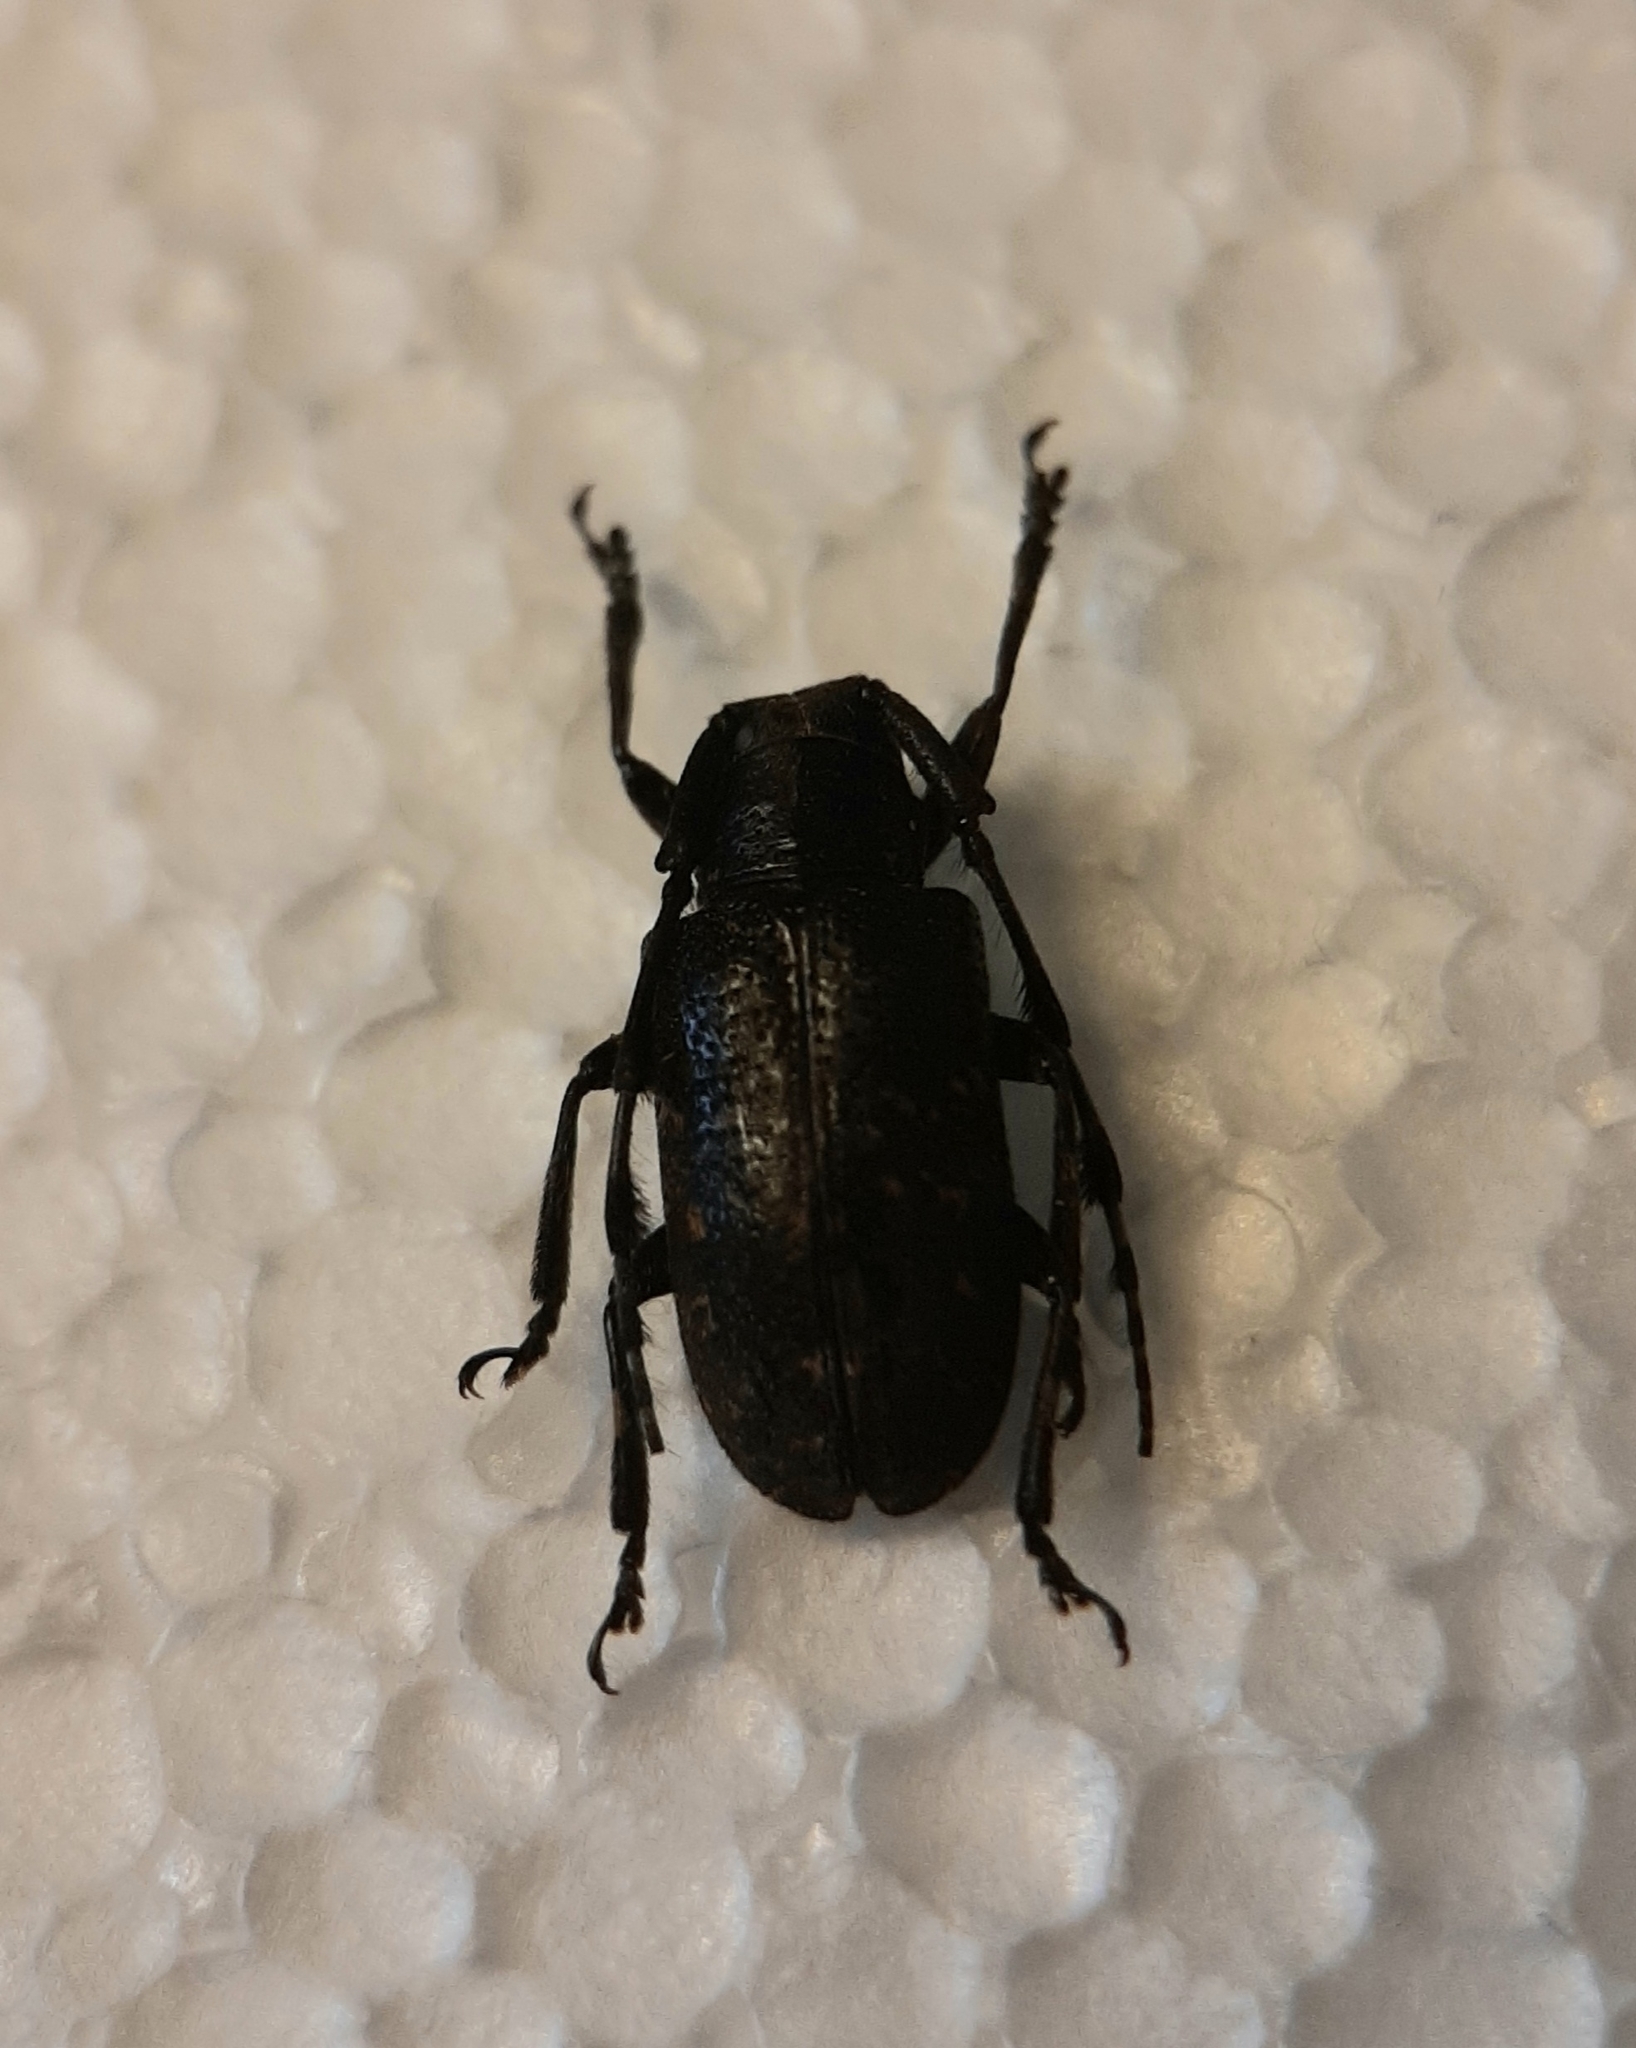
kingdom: Animalia
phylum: Arthropoda
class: Insecta
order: Coleoptera
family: Cerambycidae
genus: Cacia
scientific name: Cacia cretifera
